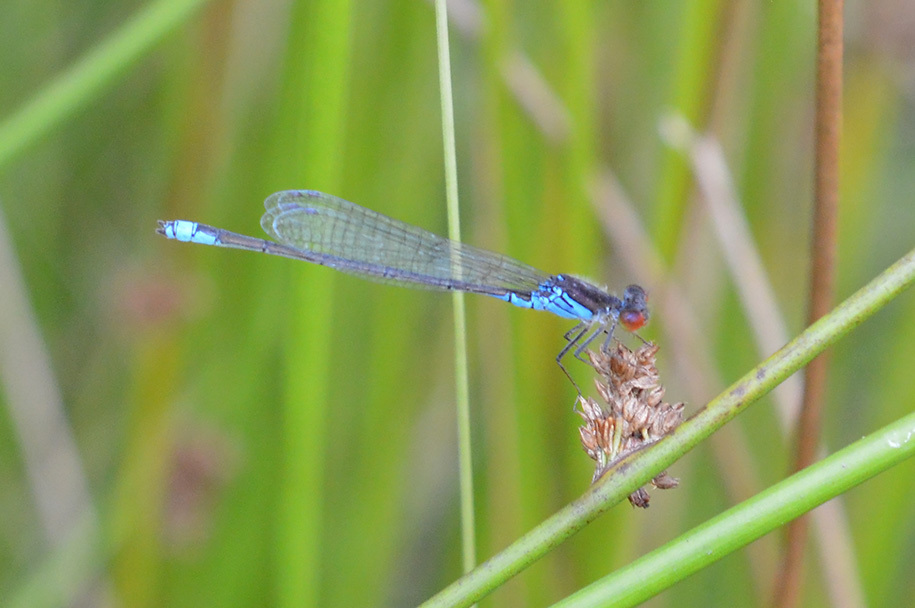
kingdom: Animalia
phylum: Arthropoda
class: Insecta
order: Odonata
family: Coenagrionidae
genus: Erythromma
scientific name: Erythromma viridulum
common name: Small red-eyed damselfly
